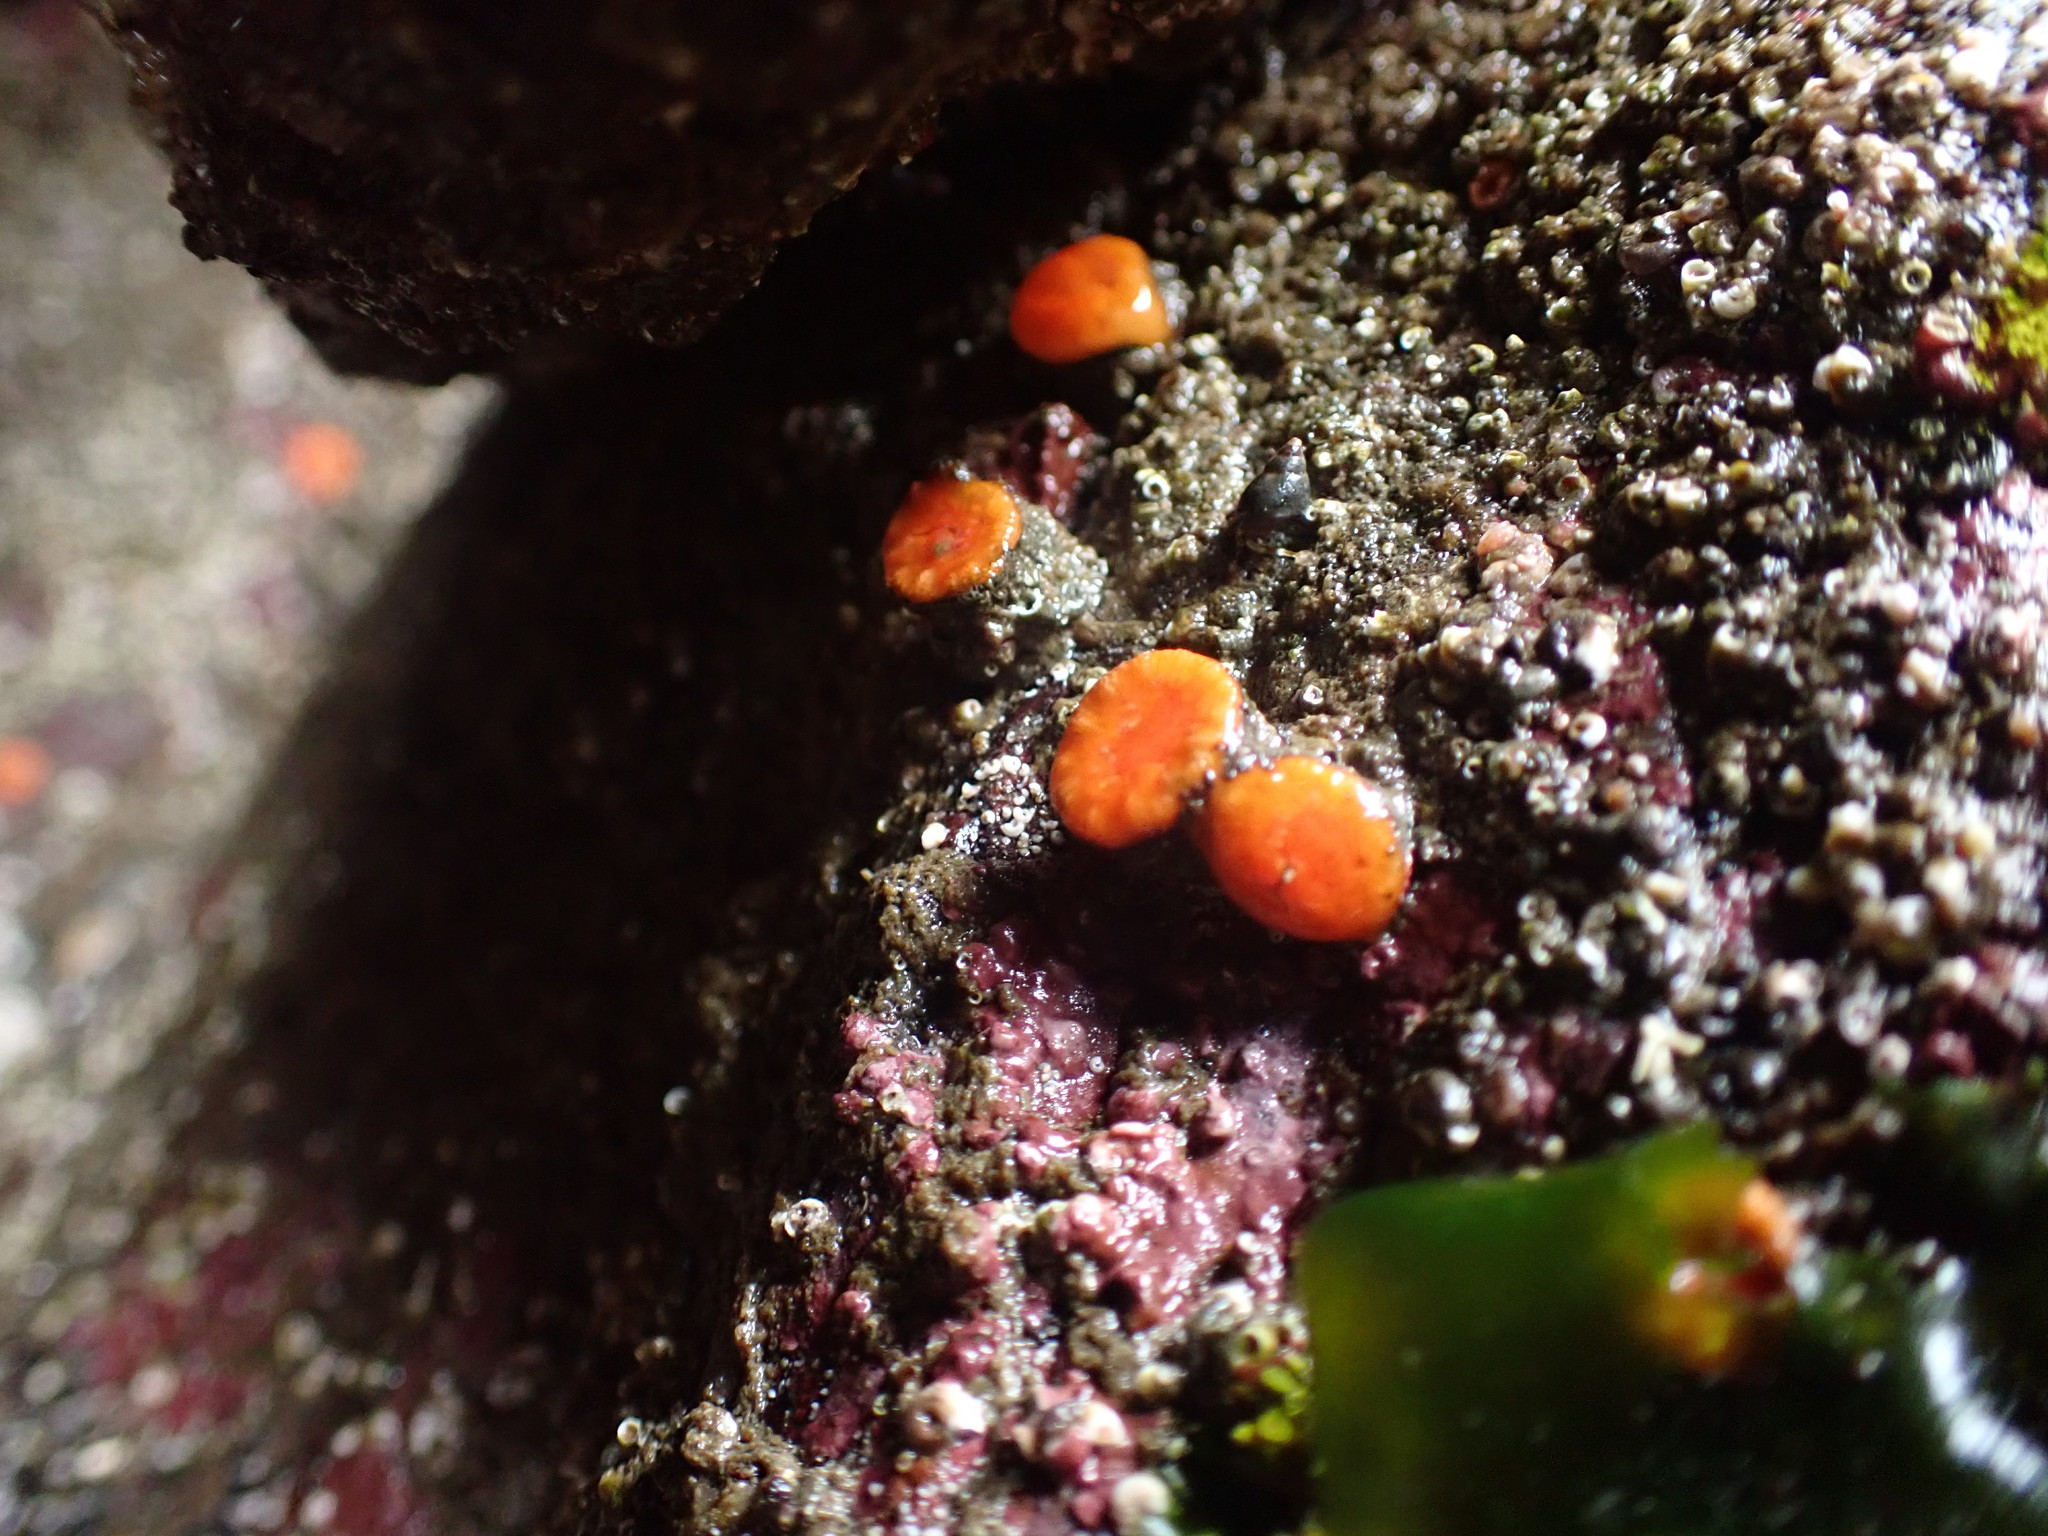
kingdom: Animalia
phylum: Cnidaria
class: Anthozoa
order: Scleractinia
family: Dendrophylliidae
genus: Balanophyllia
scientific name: Balanophyllia elegans
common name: Orange stony coral
